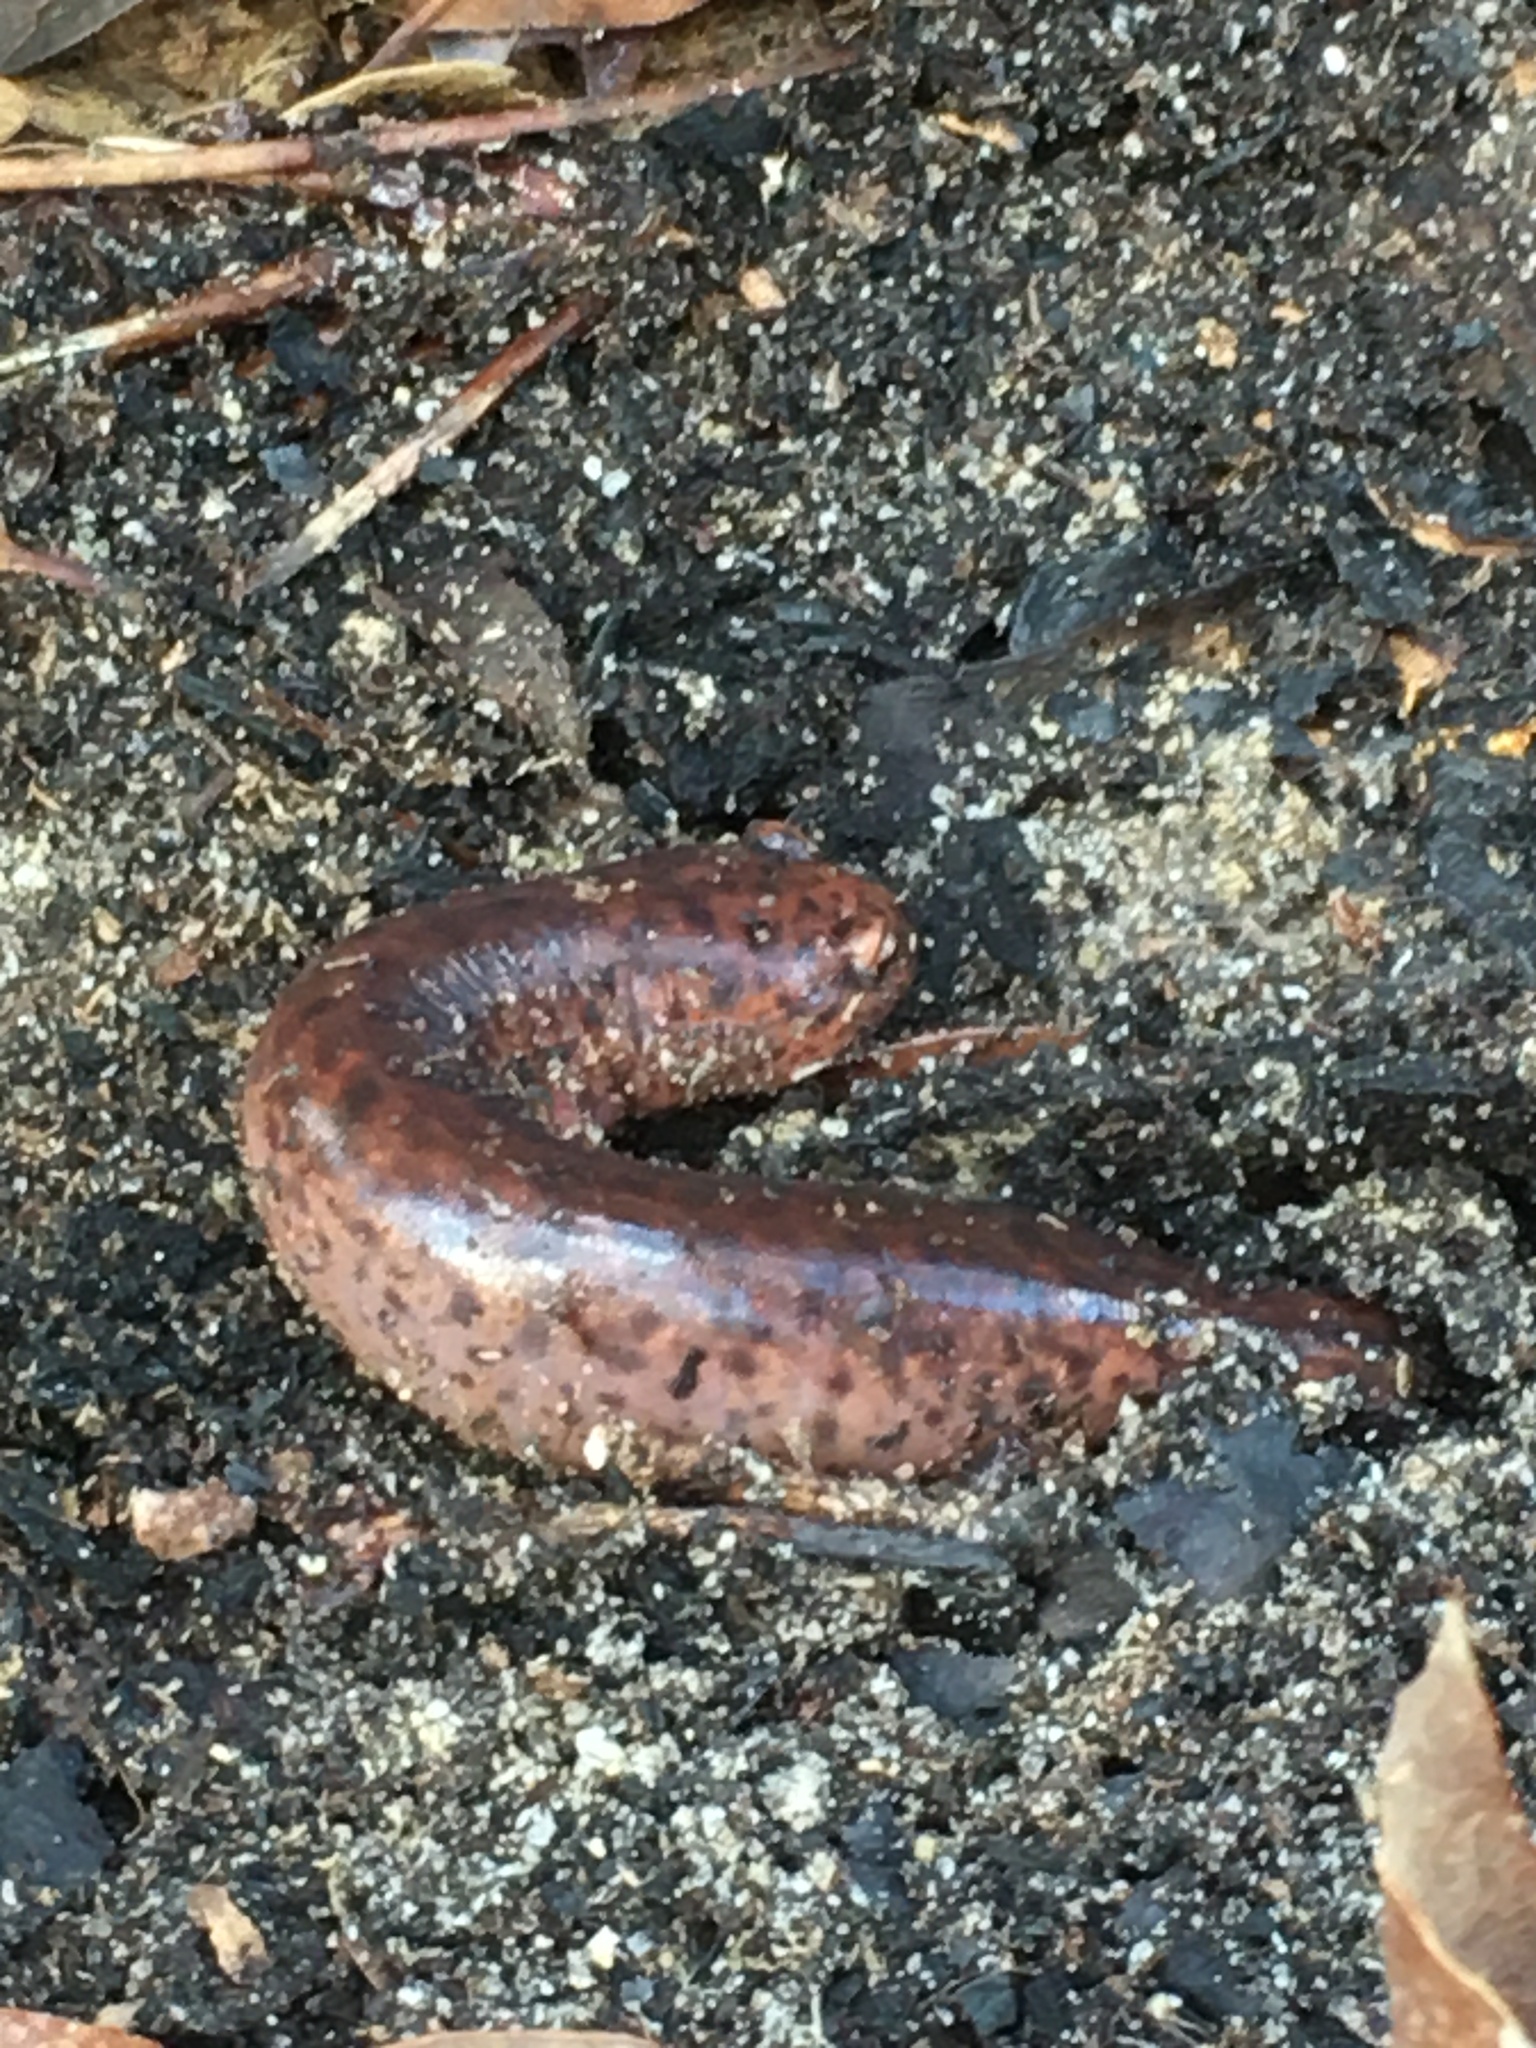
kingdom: Animalia
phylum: Chordata
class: Amphibia
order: Caudata
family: Plethodontidae
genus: Pseudotriton
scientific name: Pseudotriton ruber
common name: Red salamander
